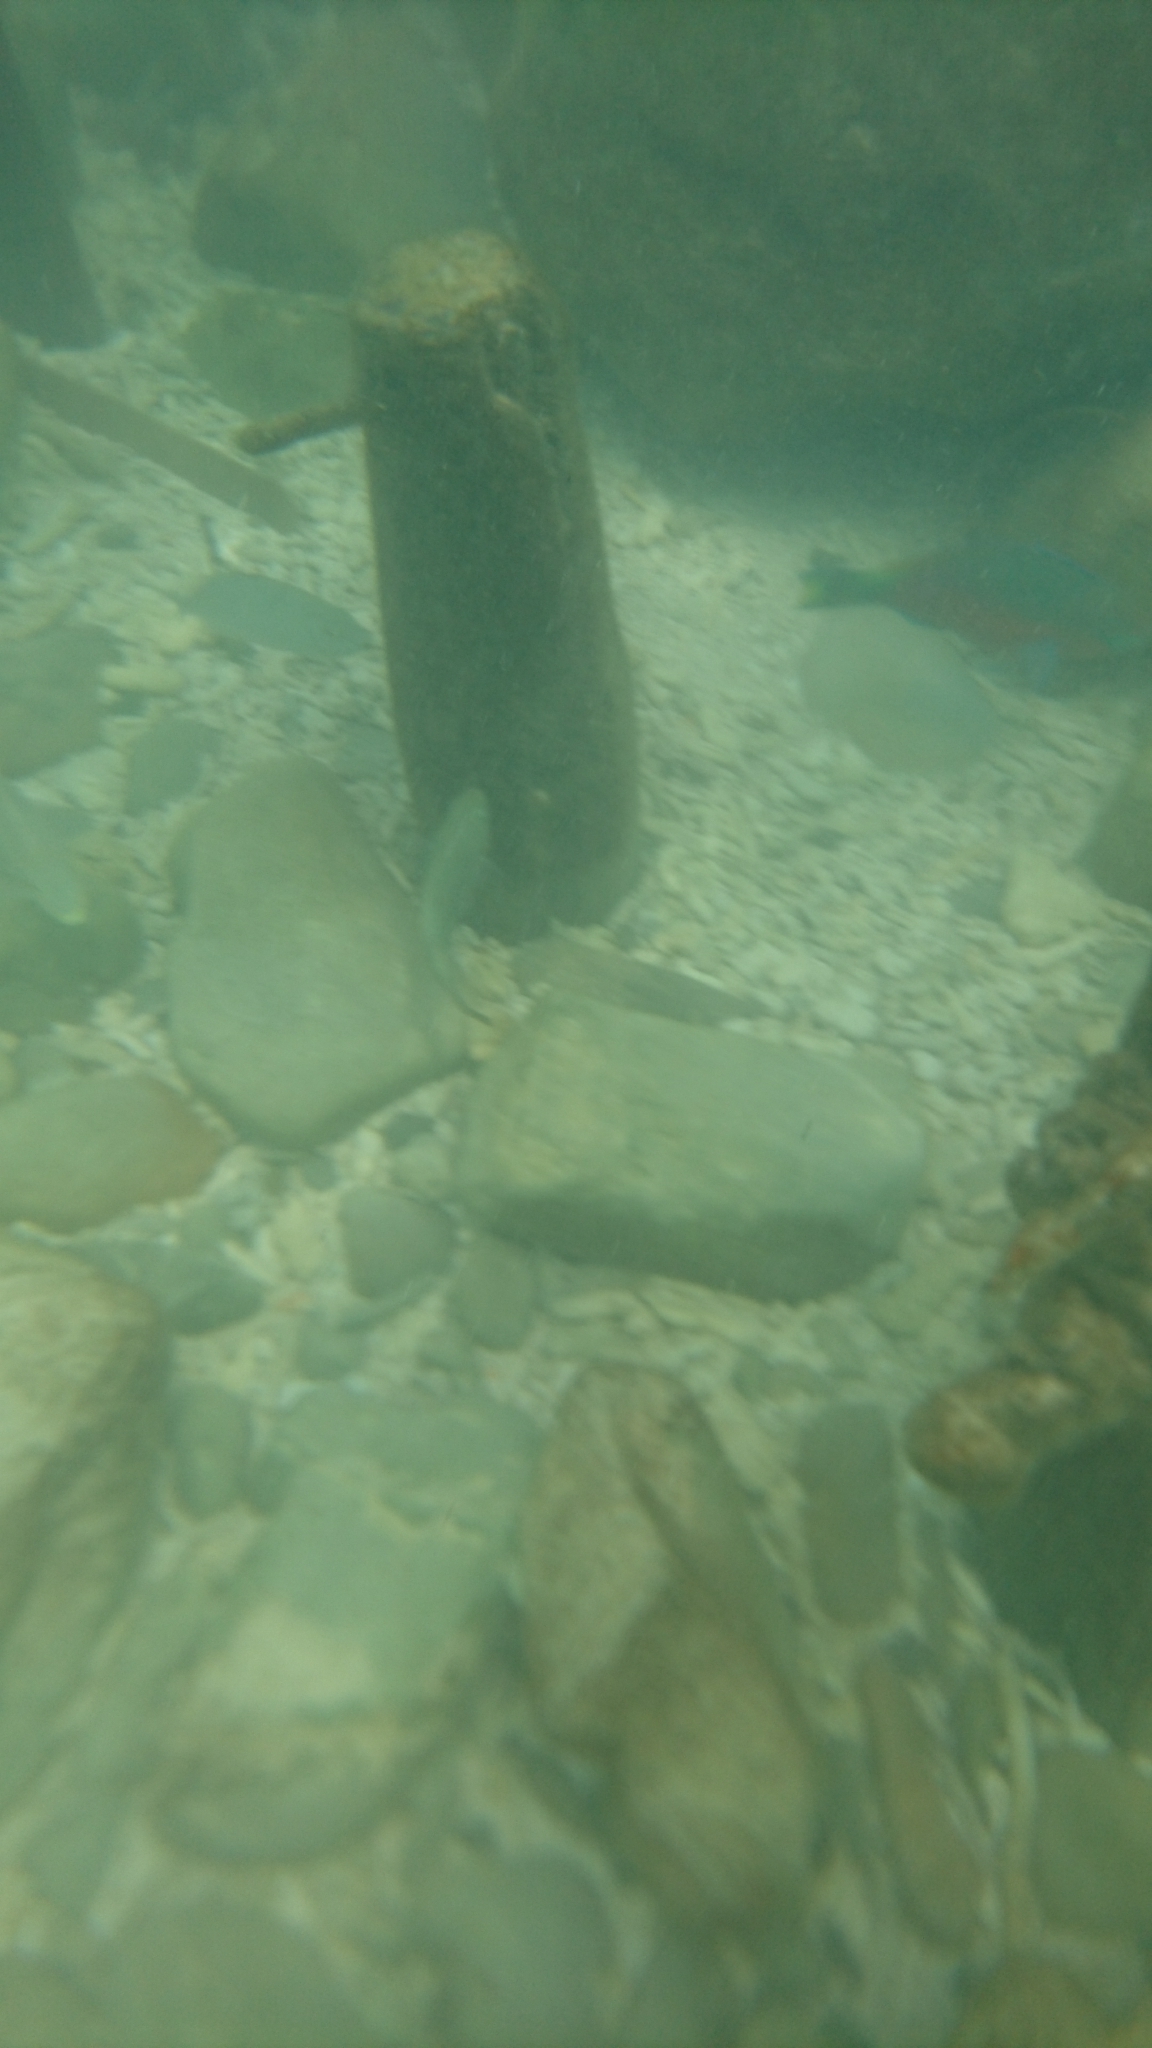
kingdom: Animalia
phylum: Chordata
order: Perciformes
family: Scaridae
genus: Scarus
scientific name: Scarus quoyi
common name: Quoy's parrotfish
